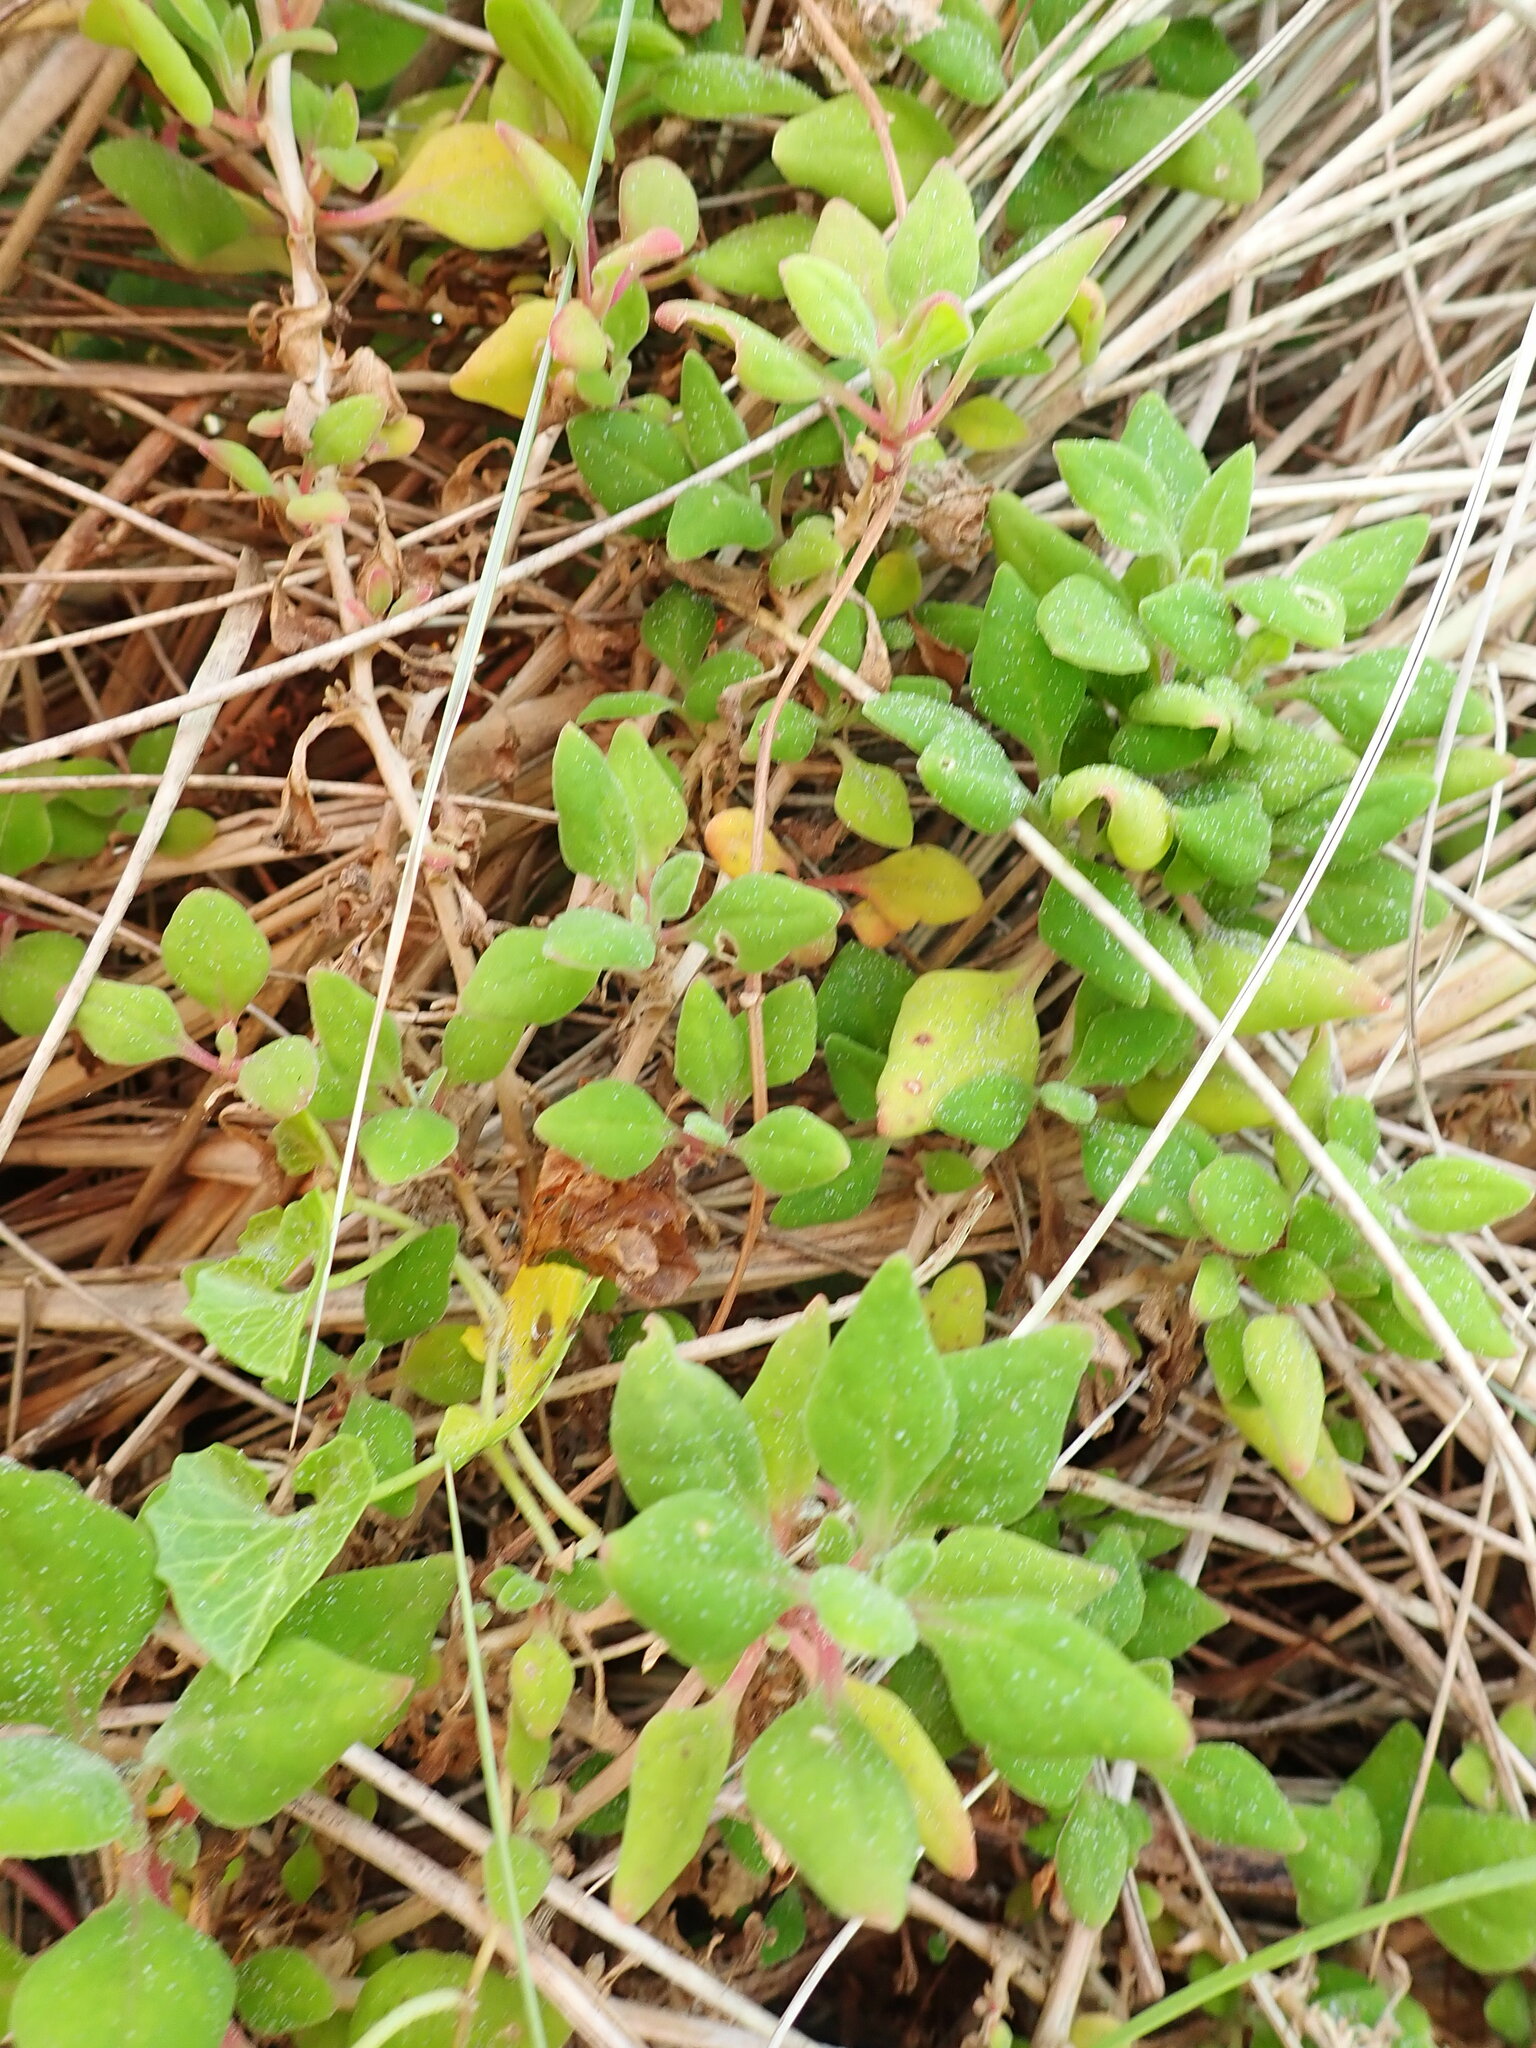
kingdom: Plantae
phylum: Tracheophyta
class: Magnoliopsida
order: Caryophyllales
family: Aizoaceae
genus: Tetragonia
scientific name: Tetragonia implexicoma
